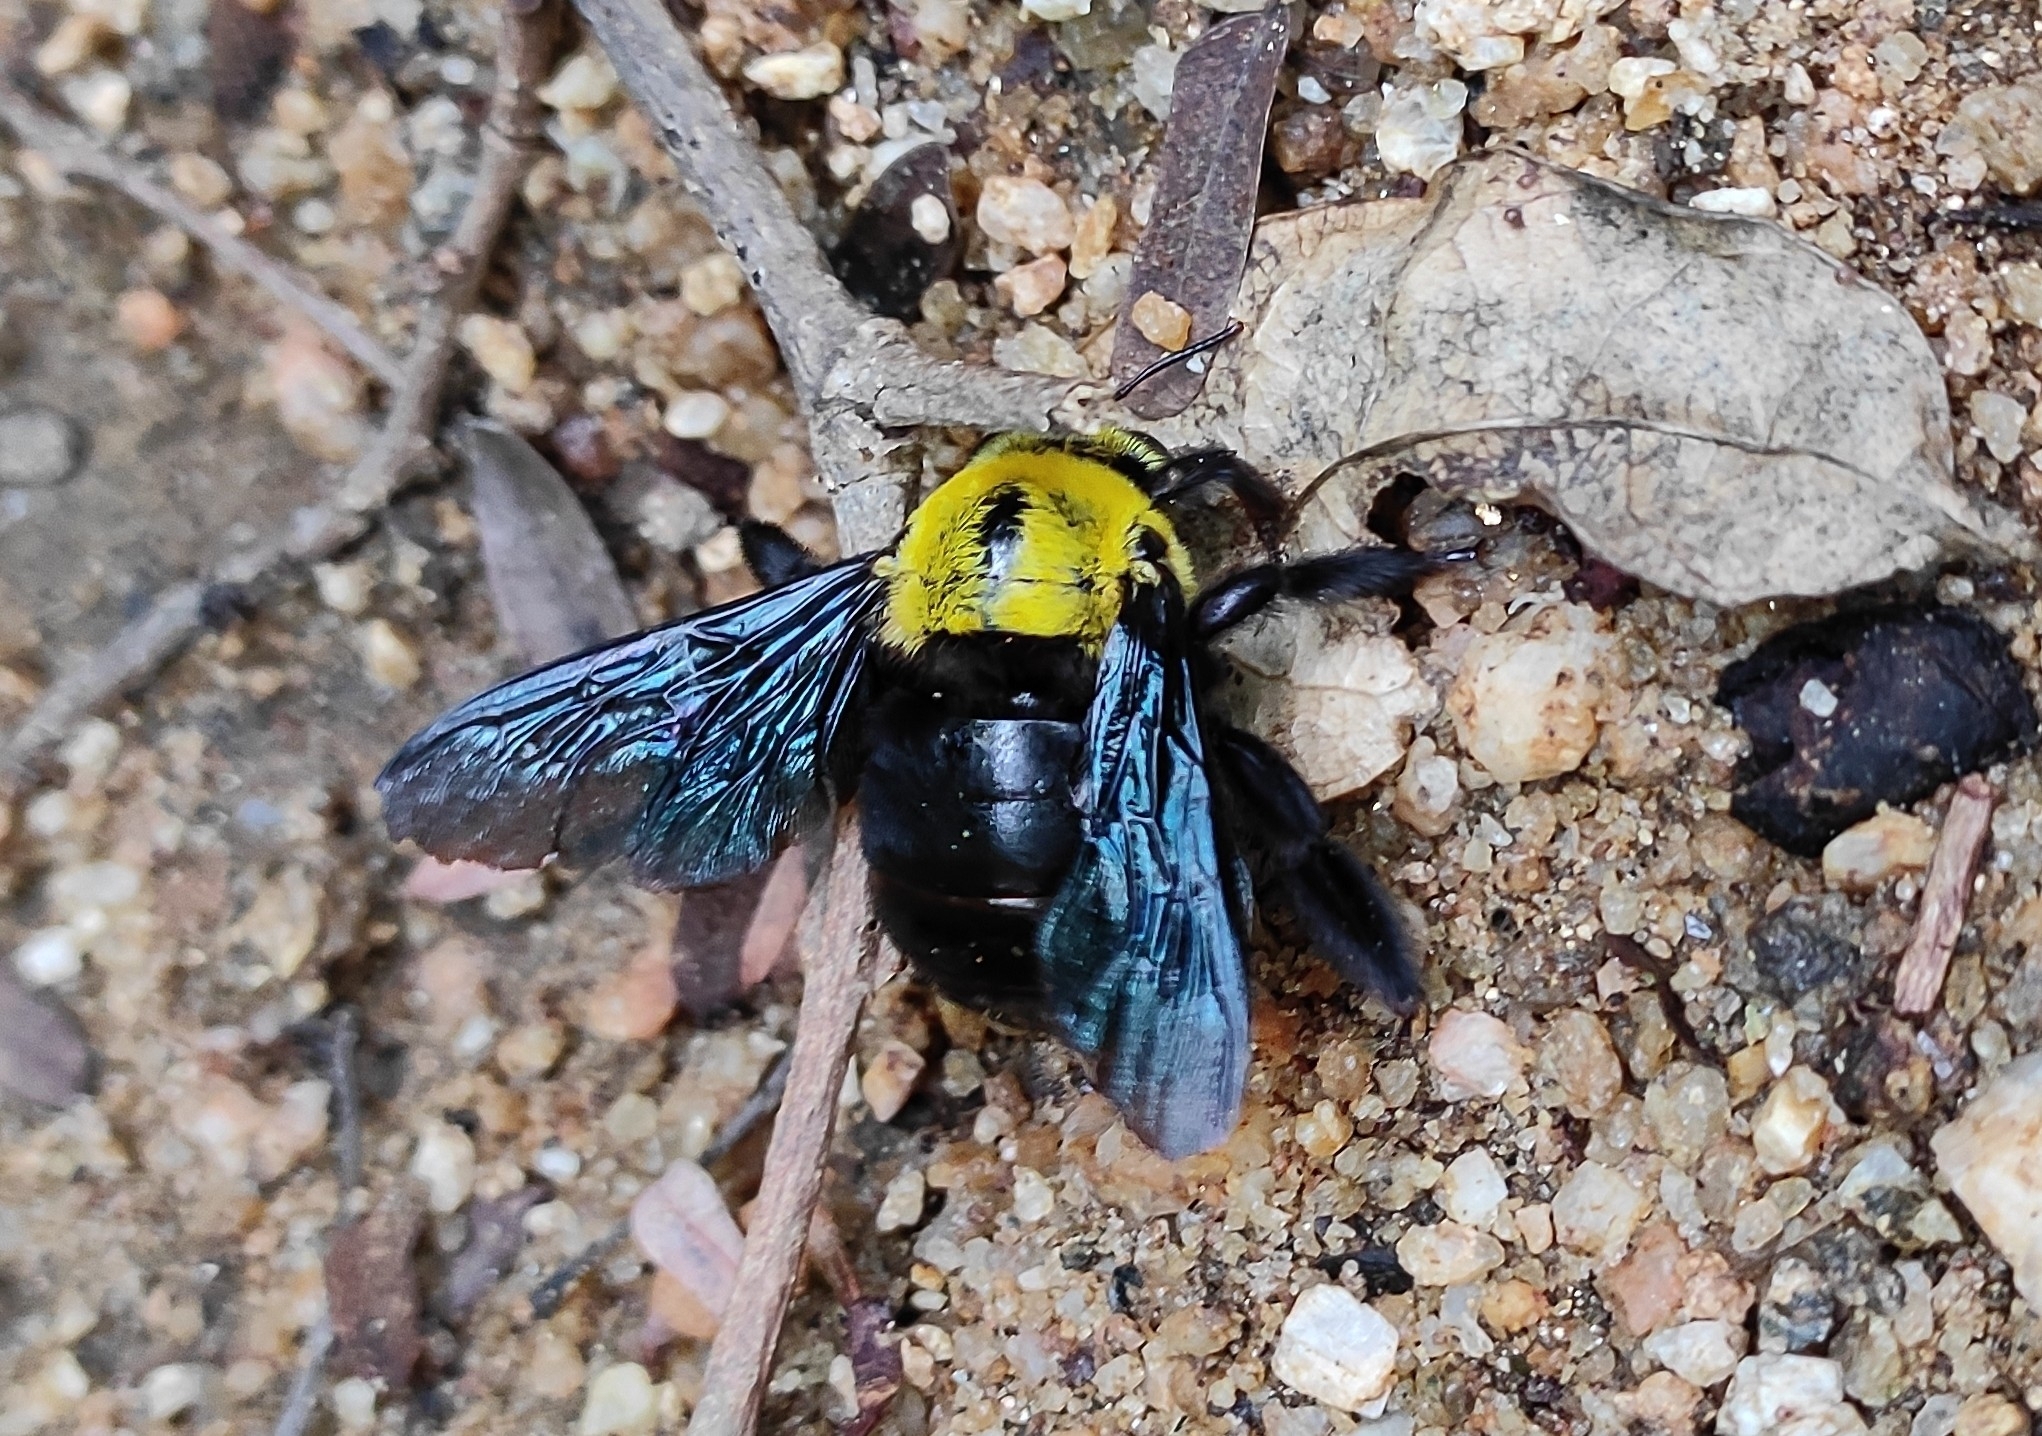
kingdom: Animalia
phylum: Arthropoda
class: Insecta
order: Hymenoptera
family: Apidae
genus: Xylocopa
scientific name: Xylocopa ruficornis
